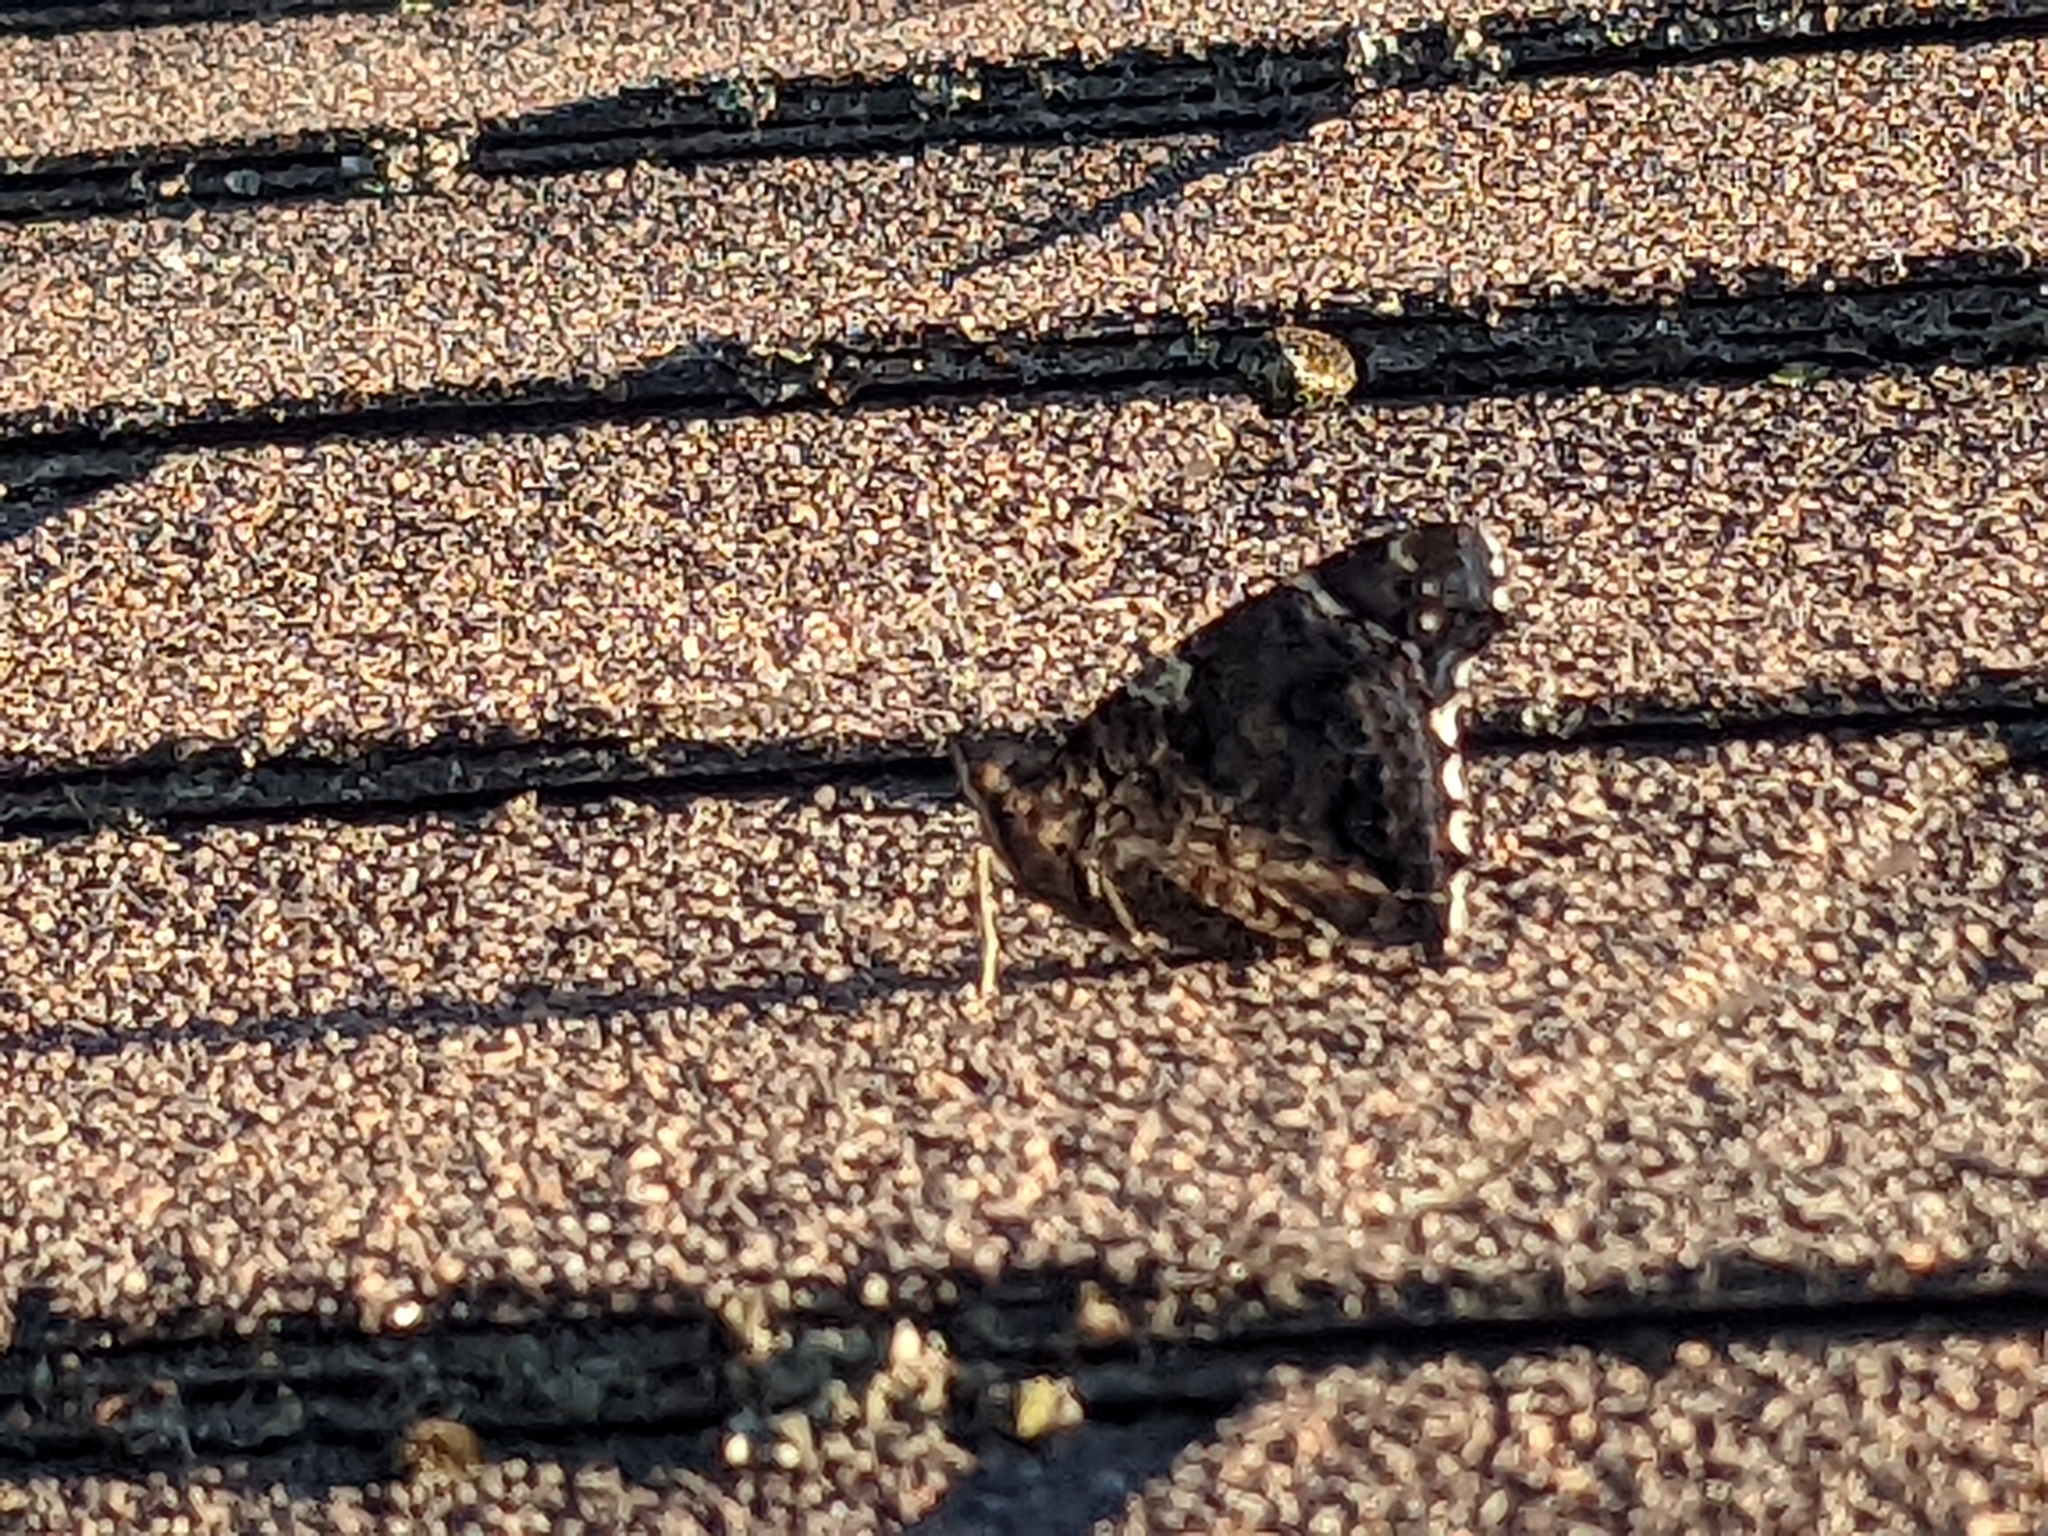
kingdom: Animalia
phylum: Arthropoda
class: Insecta
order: Lepidoptera
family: Nymphalidae
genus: Vanessa
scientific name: Vanessa atalanta
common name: Red admiral
